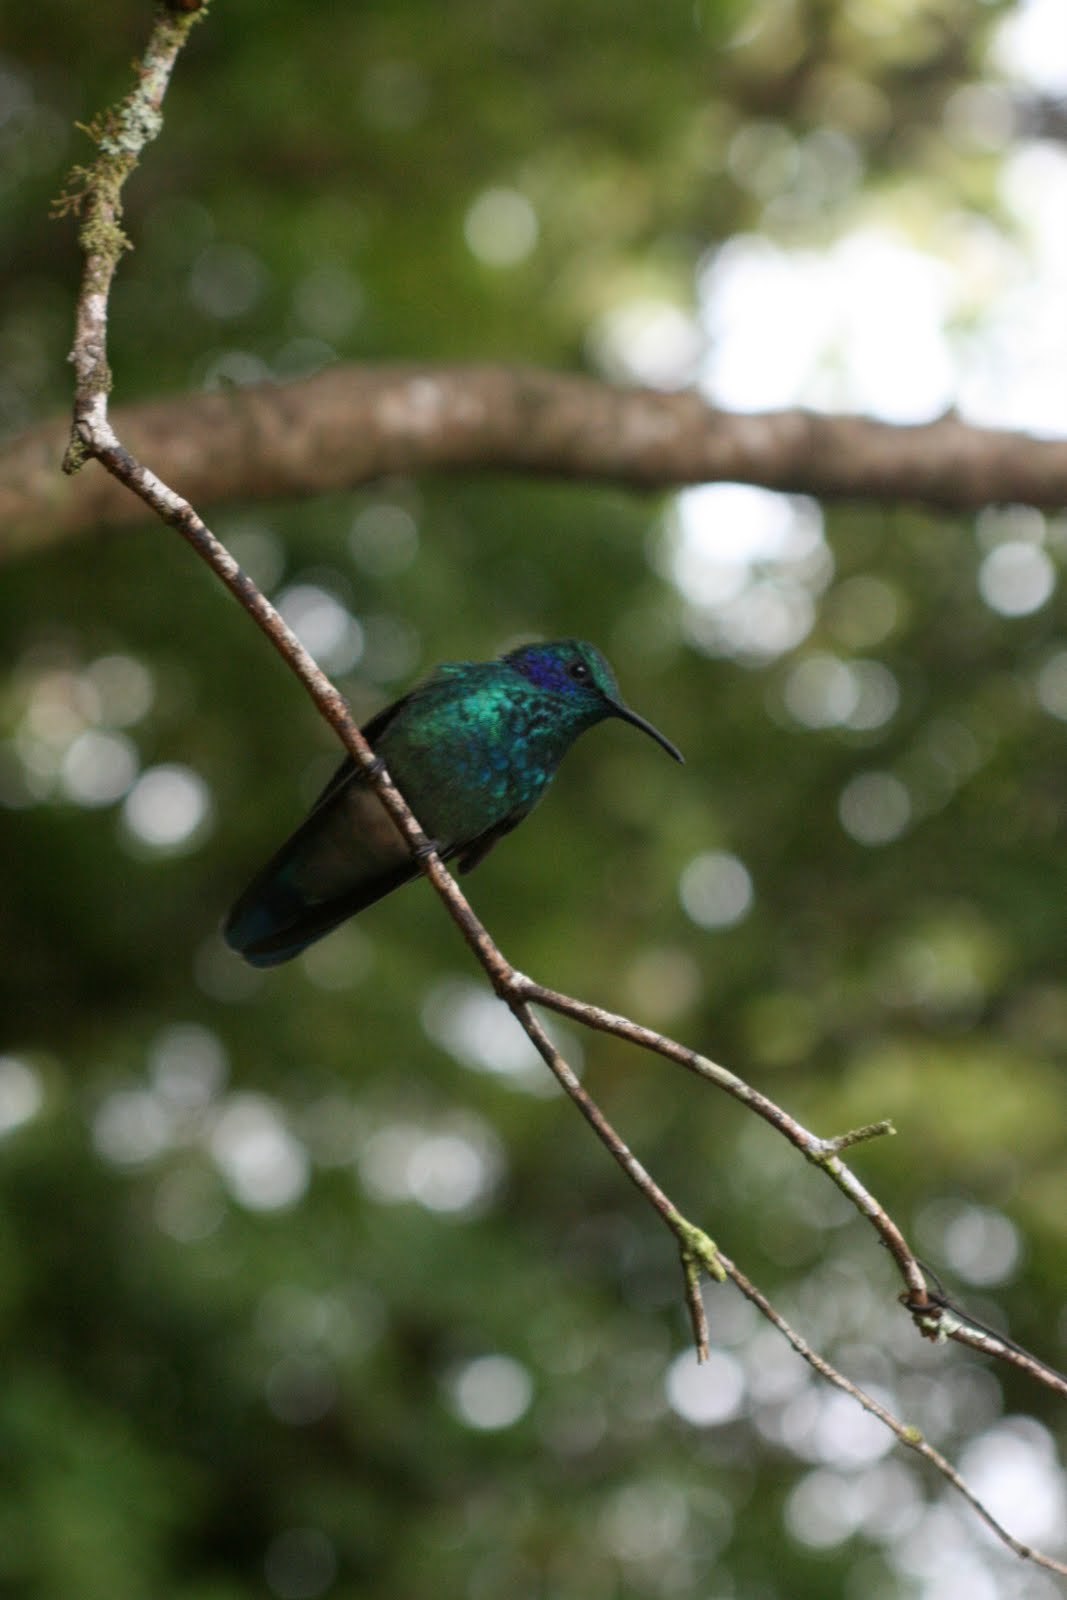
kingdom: Animalia
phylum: Chordata
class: Aves
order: Apodiformes
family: Trochilidae
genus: Colibri
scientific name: Colibri cyanotus
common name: Lesser violetear
